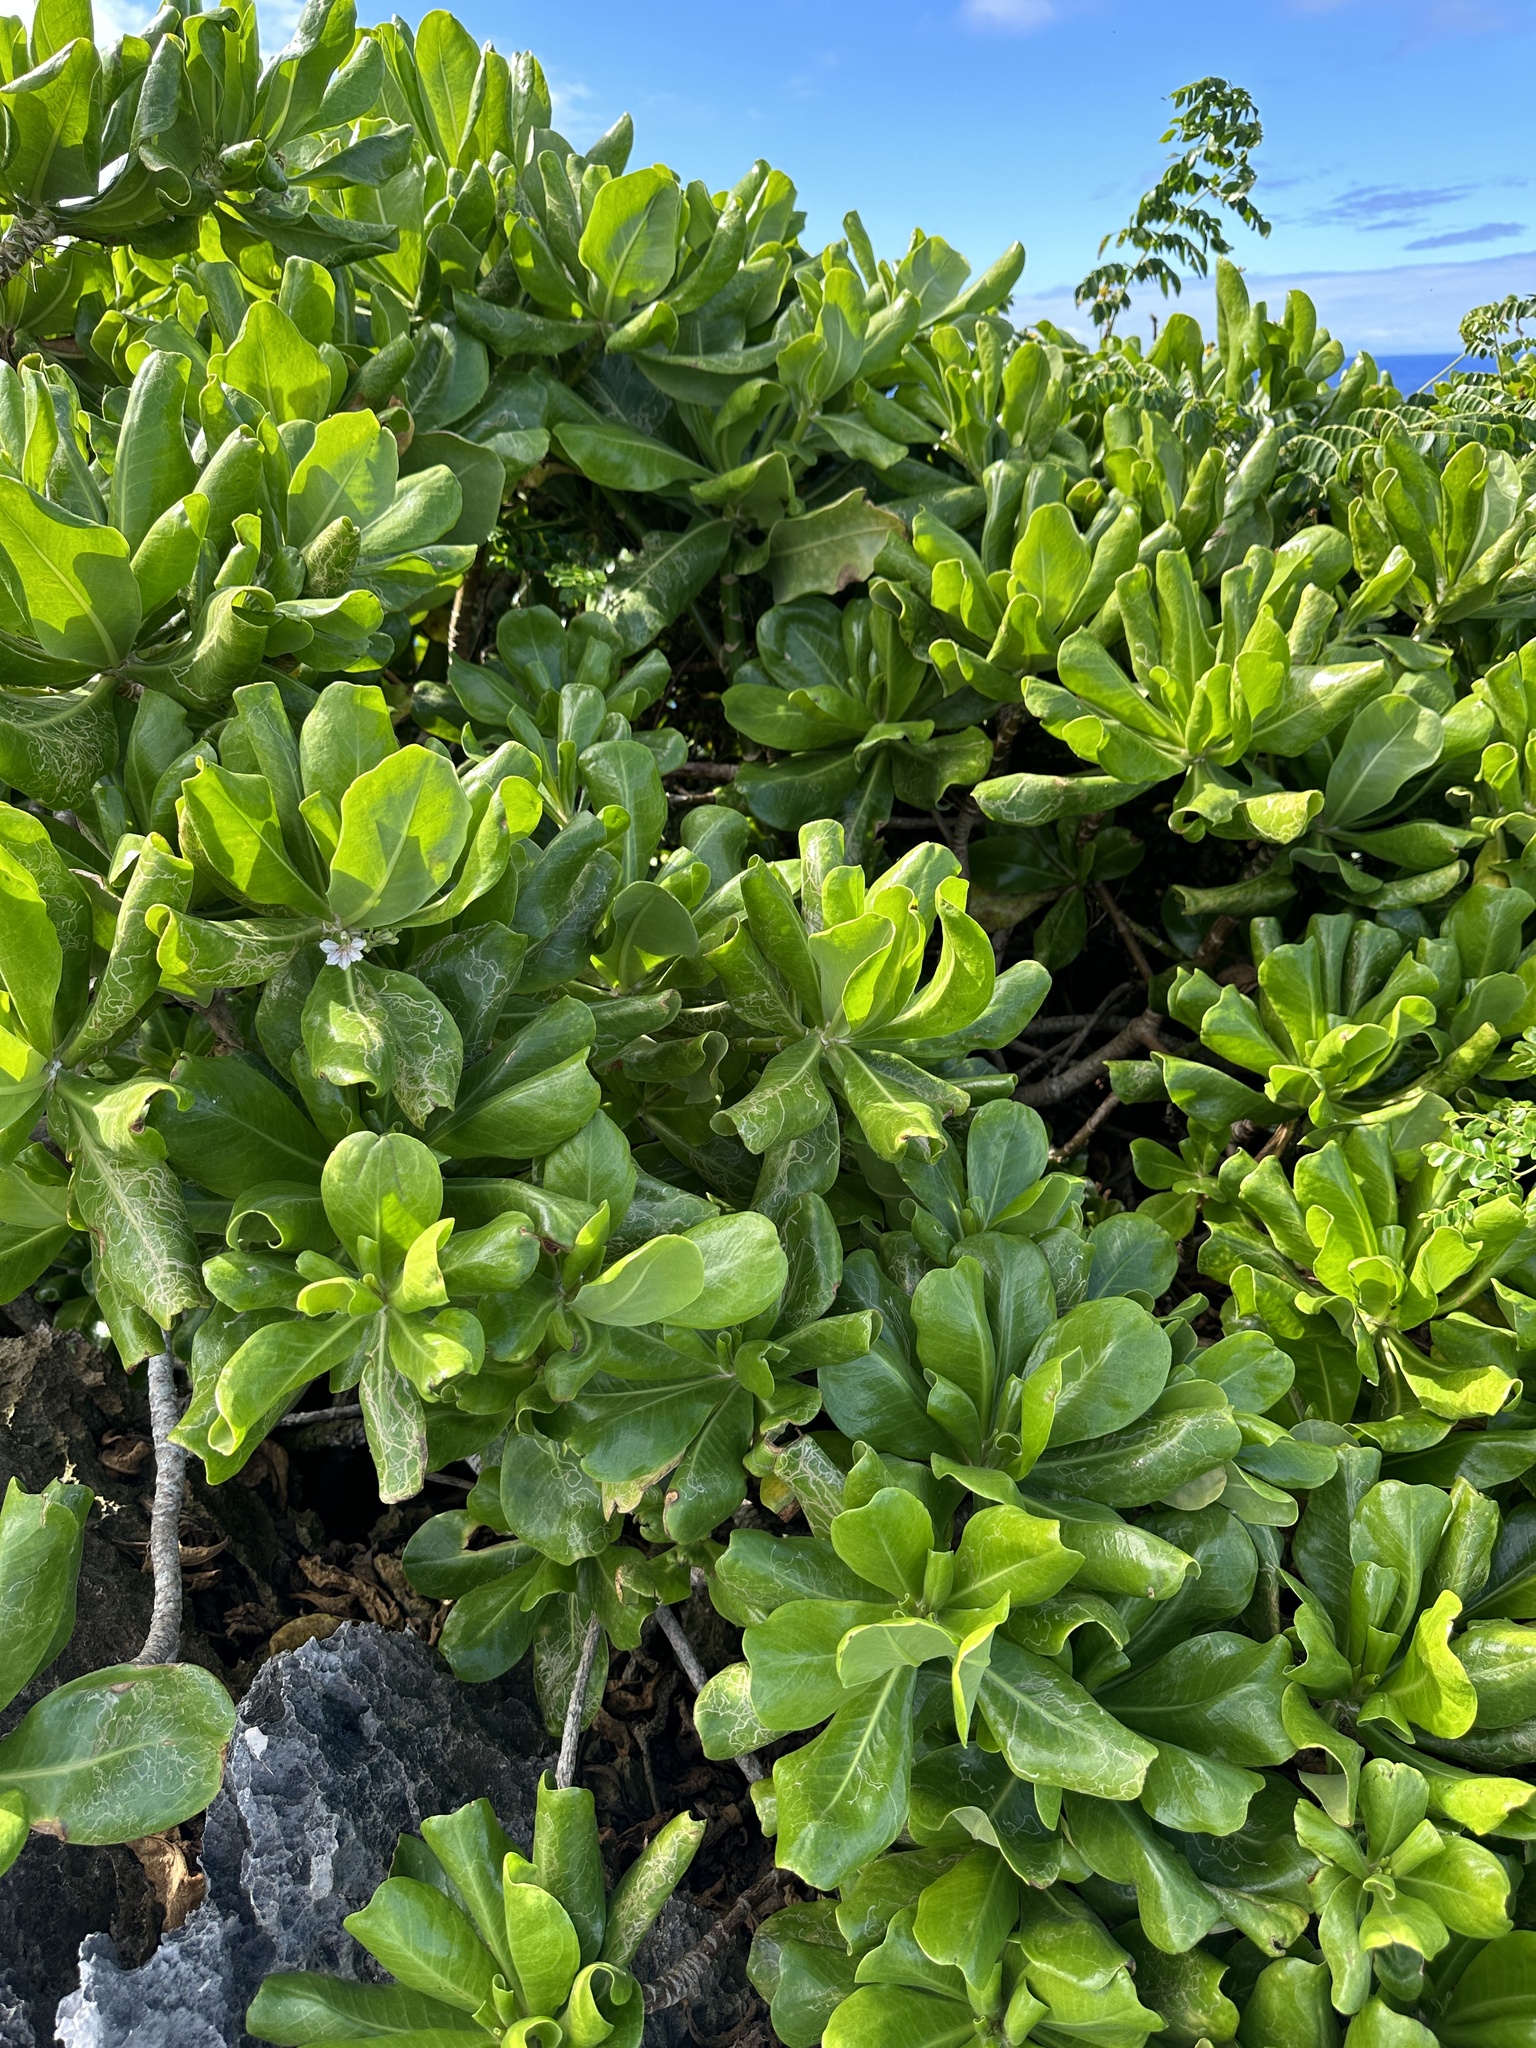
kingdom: Plantae
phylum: Tracheophyta
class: Magnoliopsida
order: Asterales
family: Goodeniaceae
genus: Scaevola
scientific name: Scaevola taccada
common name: Sea lettucetree
